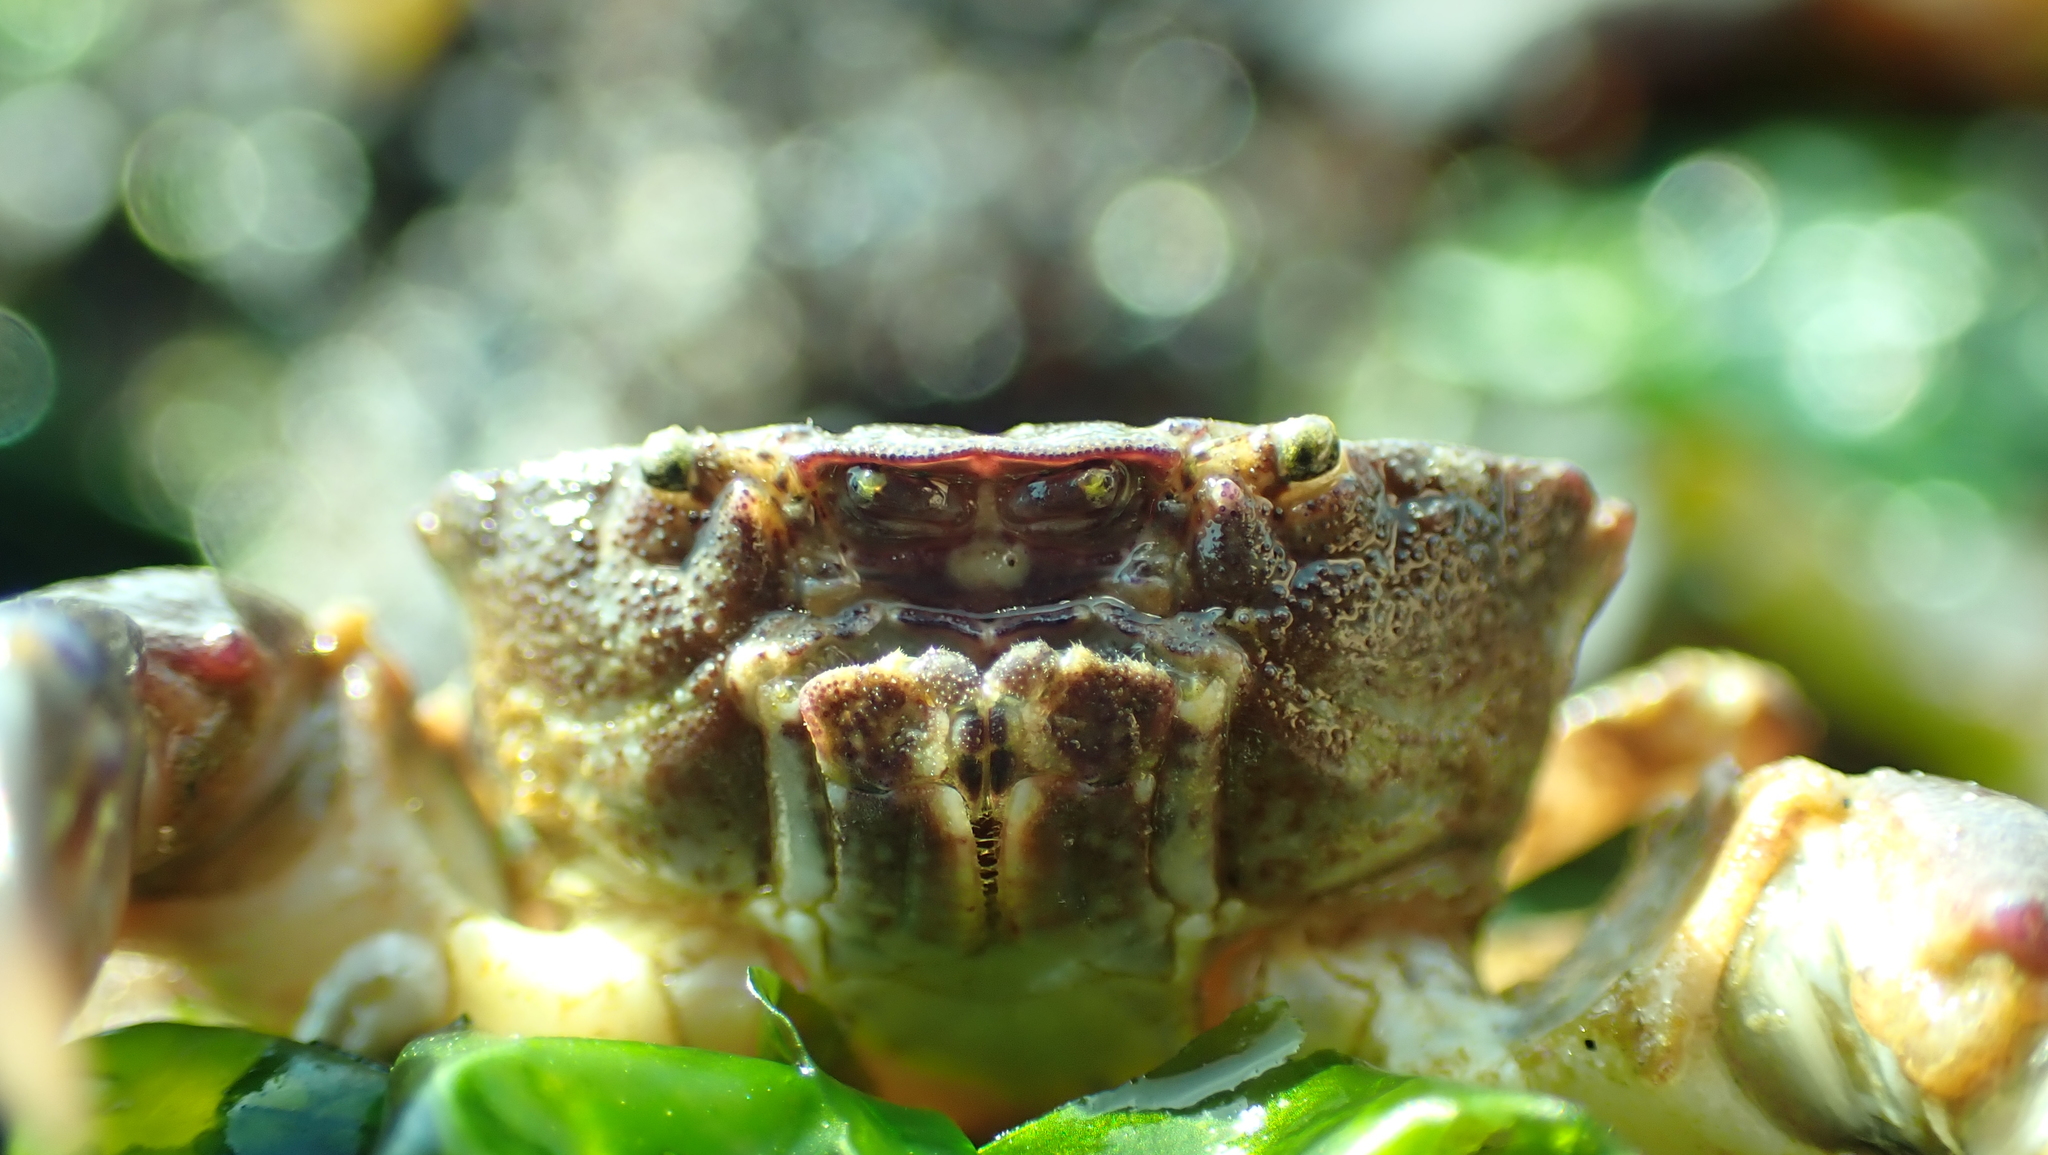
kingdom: Animalia
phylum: Arthropoda
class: Malacostraca
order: Decapoda
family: Panopeidae
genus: Lophopanopeus
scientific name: Lophopanopeus bellus
